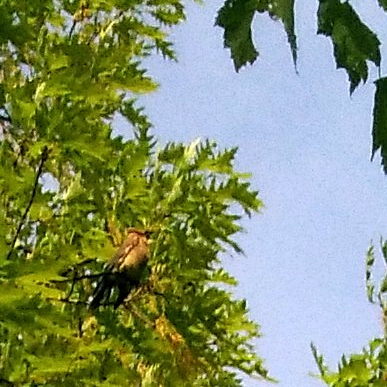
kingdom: Animalia
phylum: Chordata
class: Aves
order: Passeriformes
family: Bombycillidae
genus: Bombycilla
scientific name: Bombycilla cedrorum
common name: Cedar waxwing
